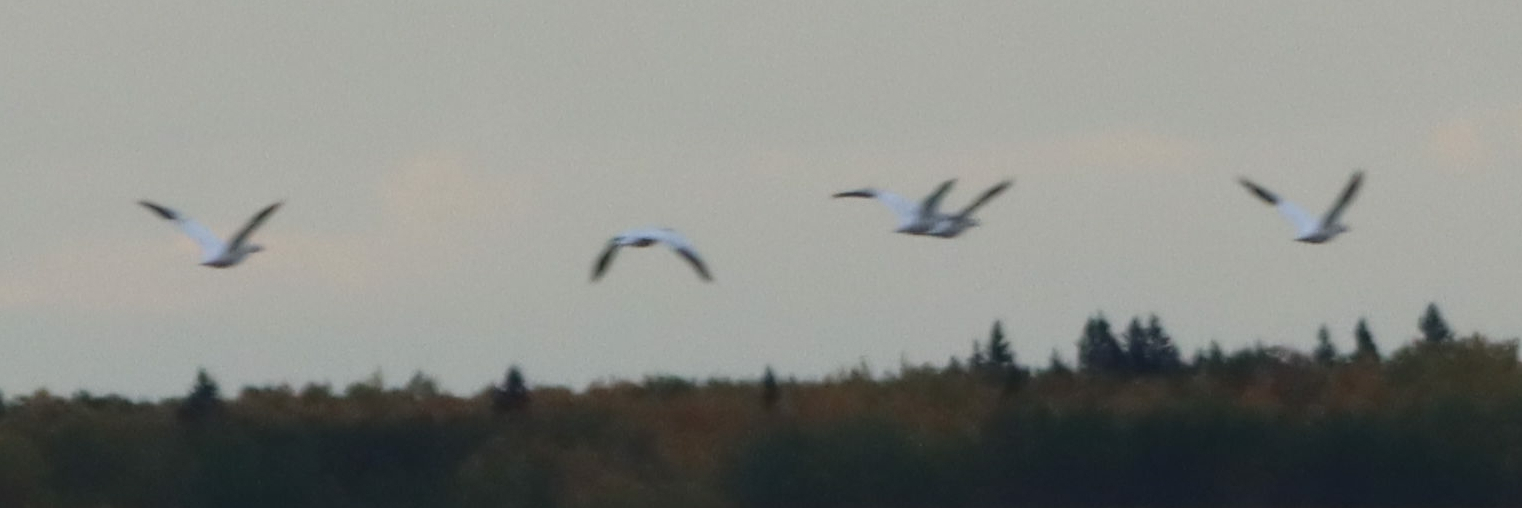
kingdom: Animalia
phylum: Chordata
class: Aves
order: Anseriformes
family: Anatidae
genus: Anser
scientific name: Anser caerulescens
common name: Snow goose
